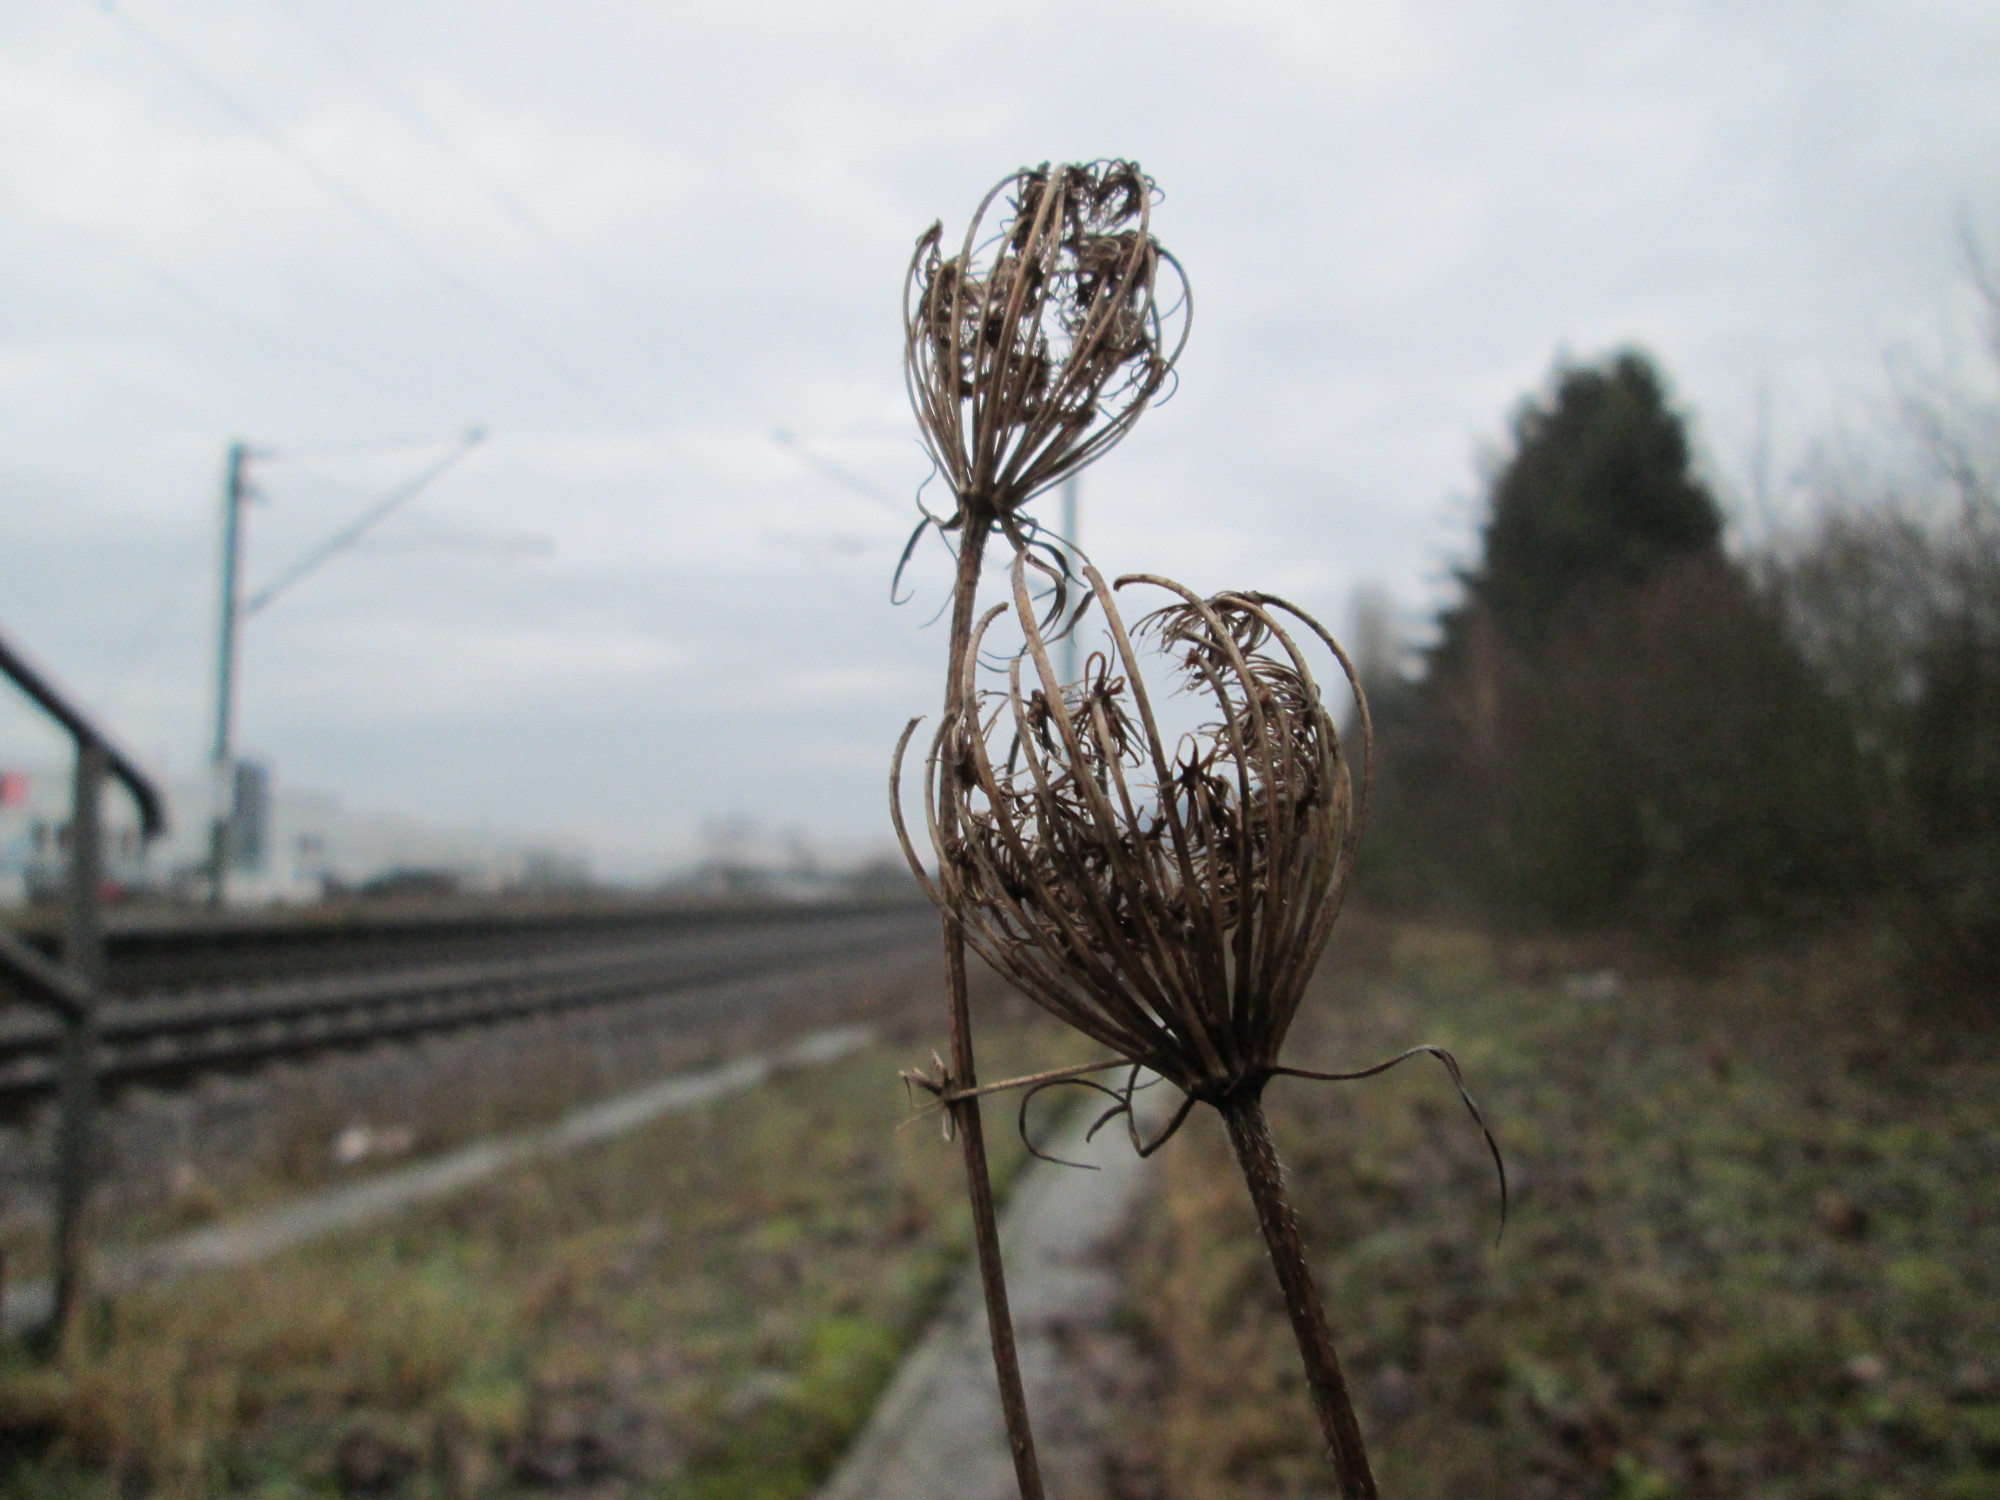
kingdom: Plantae
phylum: Tracheophyta
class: Magnoliopsida
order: Apiales
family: Apiaceae
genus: Daucus
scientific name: Daucus carota
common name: Wild carrot
